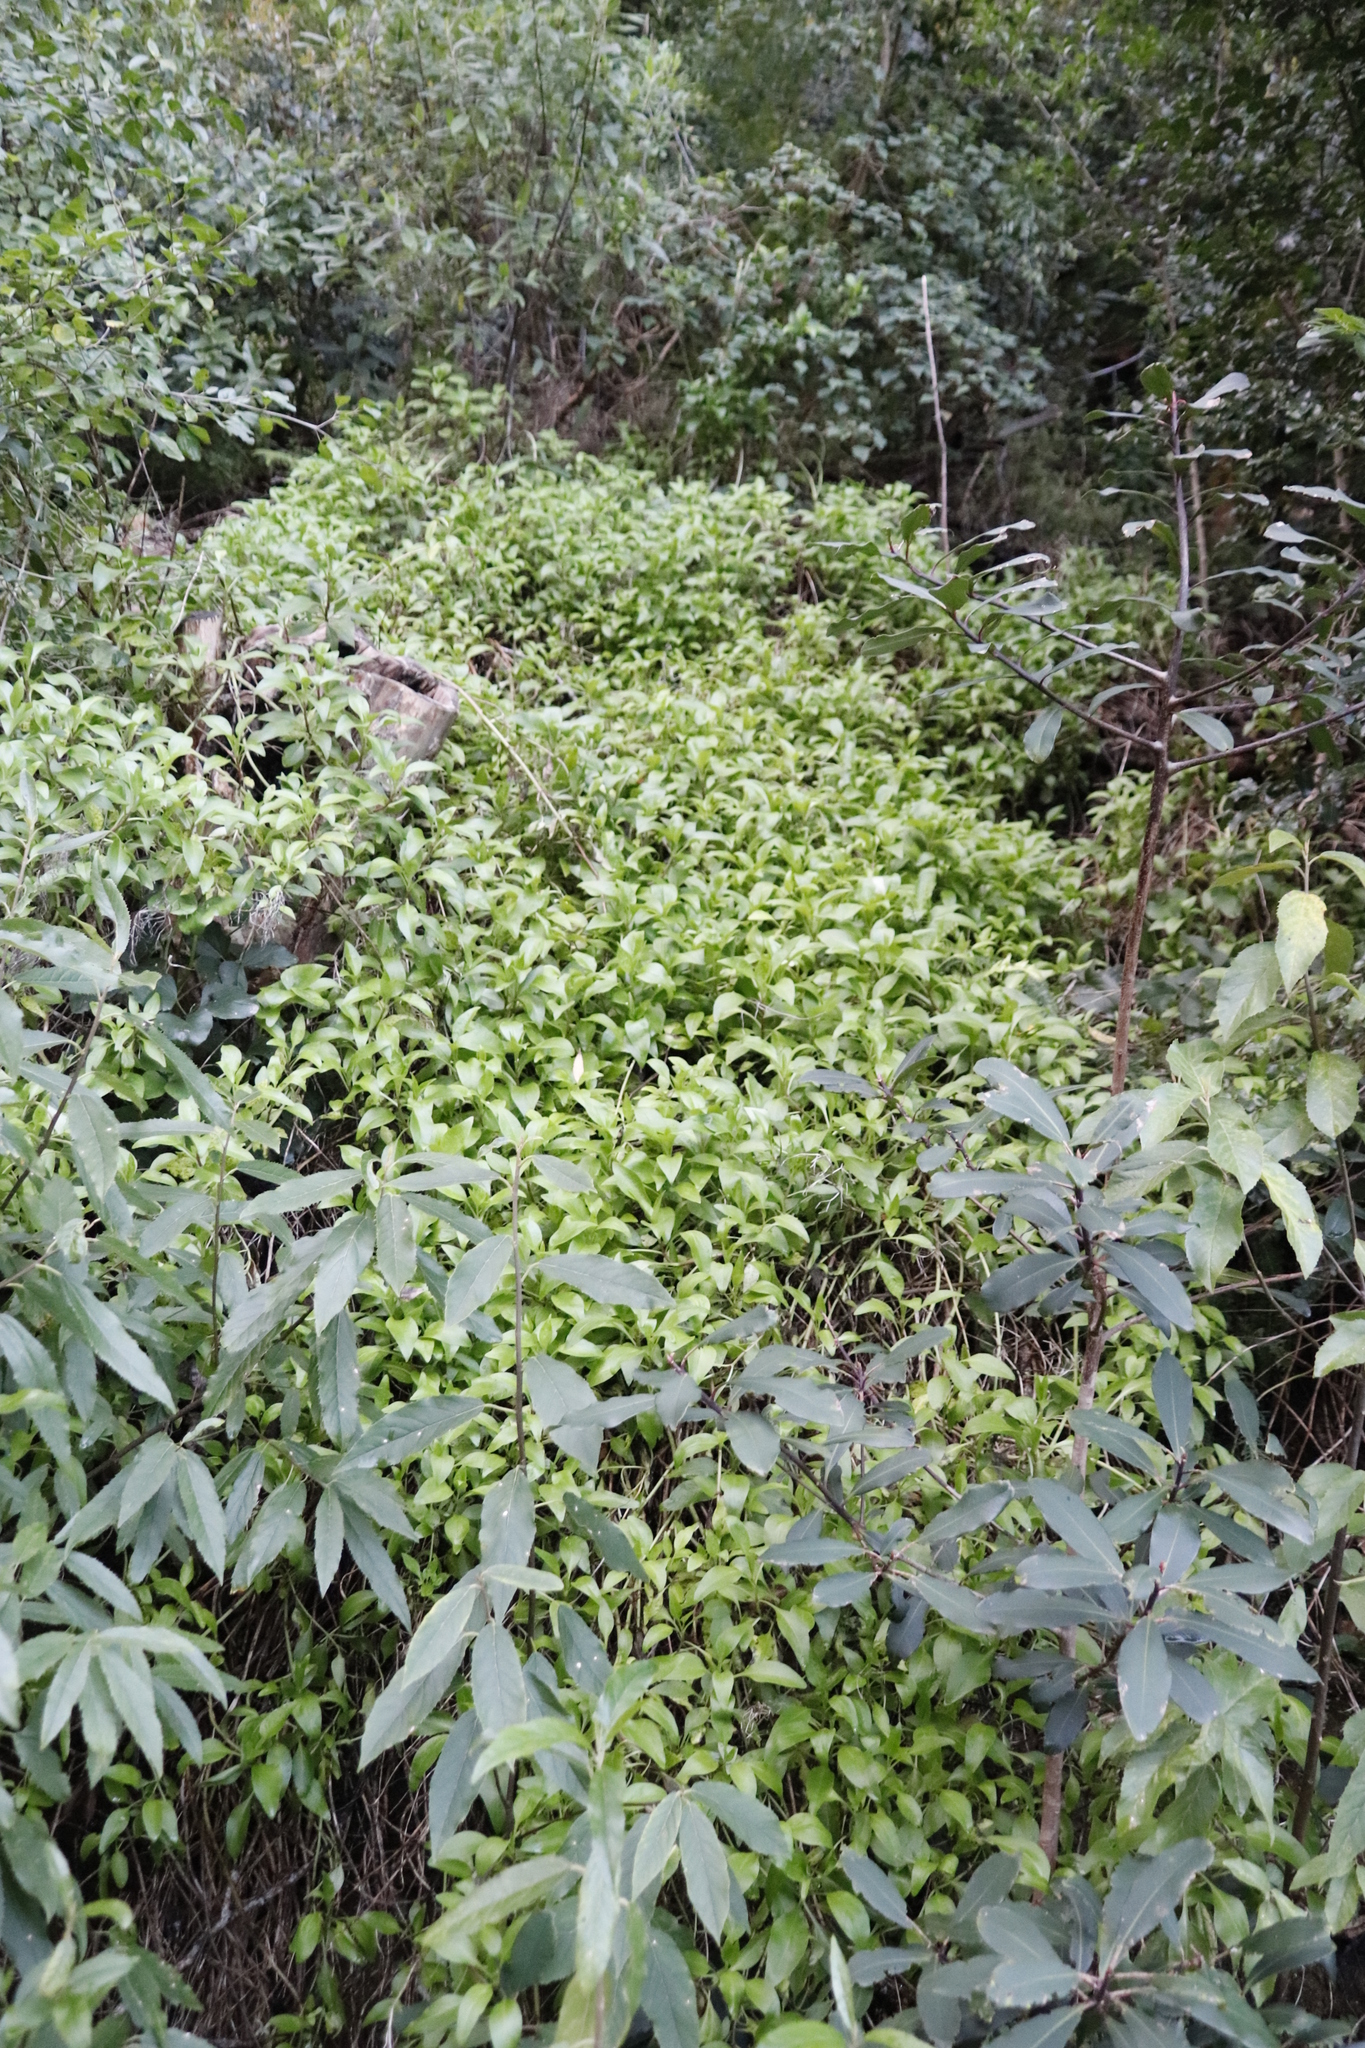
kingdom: Plantae
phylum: Tracheophyta
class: Magnoliopsida
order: Dipsacales
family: Caprifoliaceae
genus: Centranthus
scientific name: Centranthus ruber
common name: Red valerian
